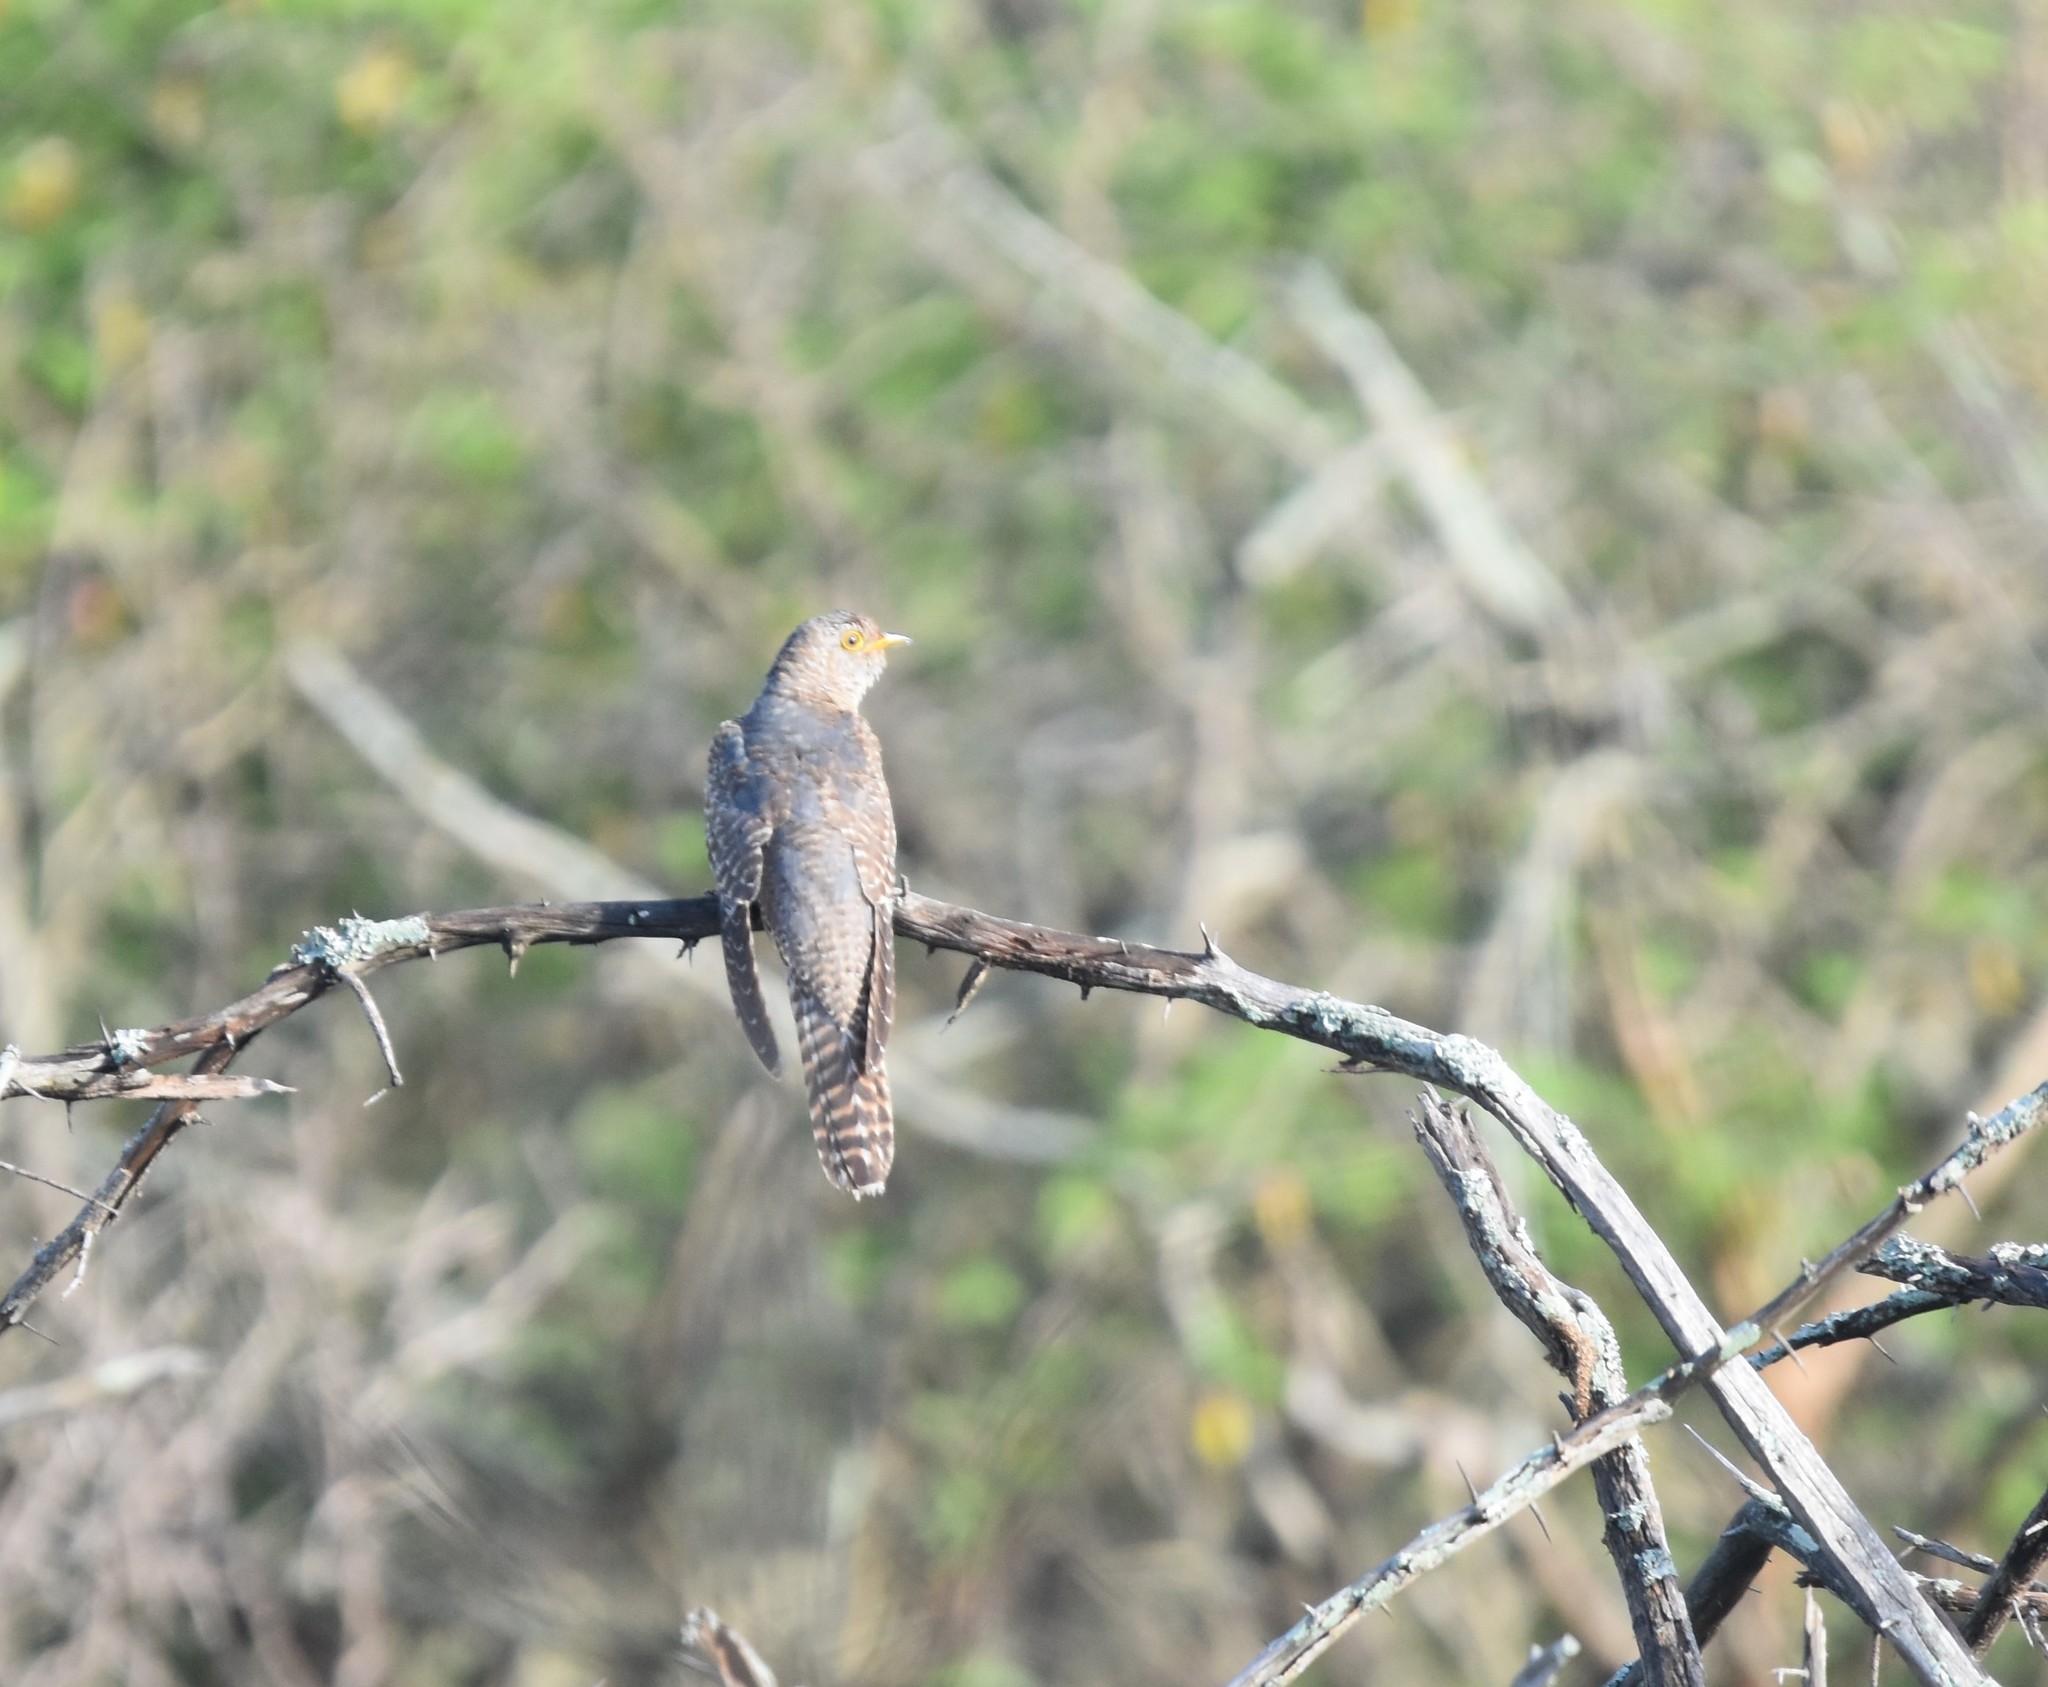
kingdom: Animalia
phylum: Chordata
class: Aves
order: Cuculiformes
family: Cuculidae
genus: Cuculus
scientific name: Cuculus canorus
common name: Common cuckoo
